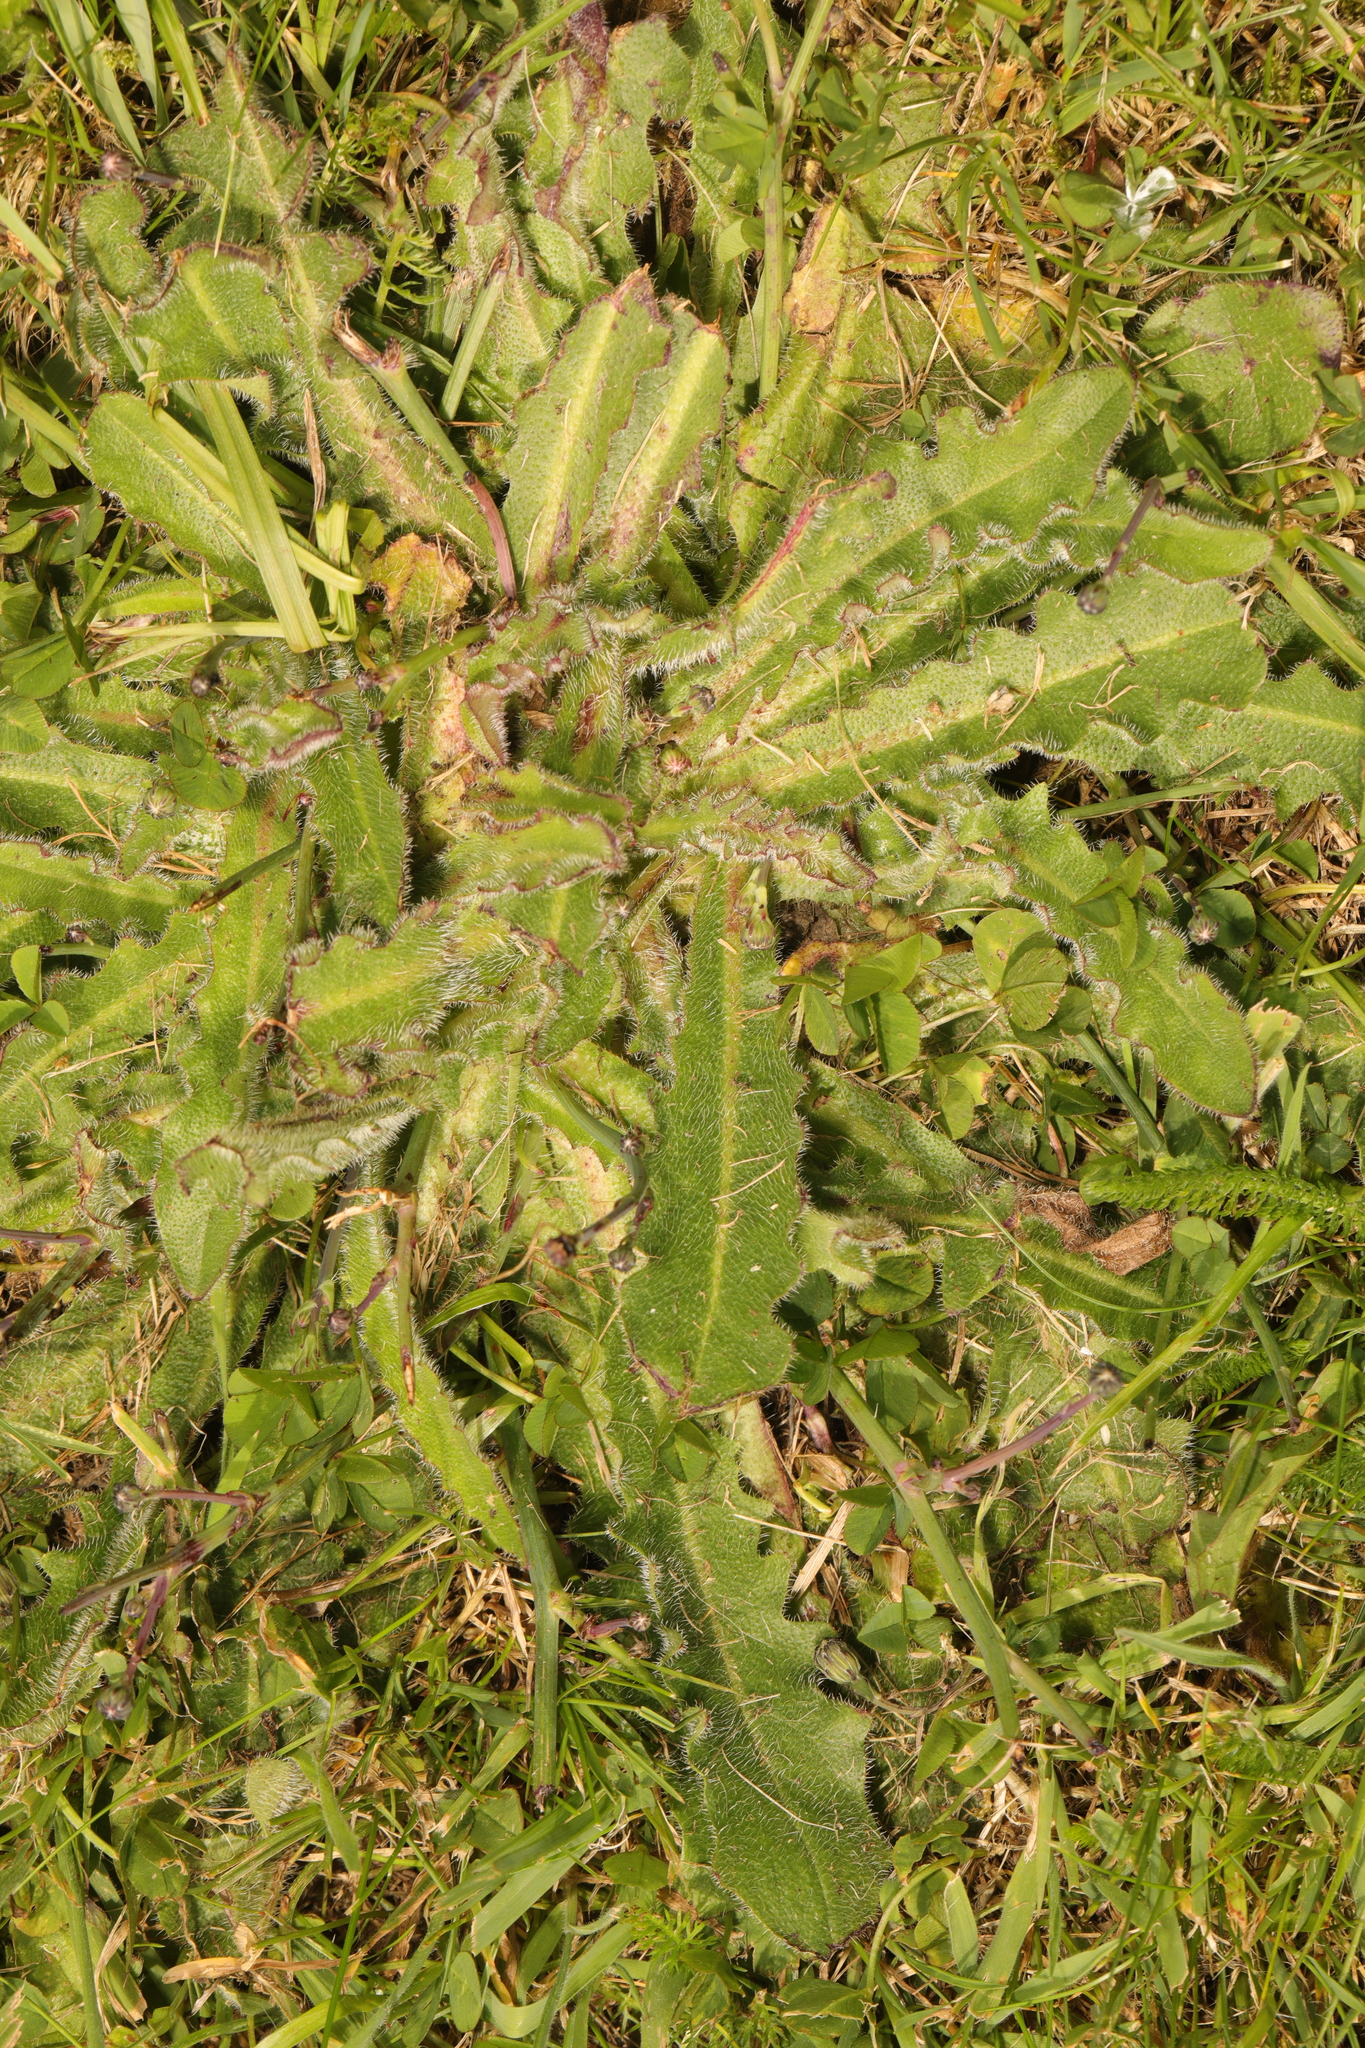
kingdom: Plantae
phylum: Tracheophyta
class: Magnoliopsida
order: Asterales
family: Asteraceae
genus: Hypochaeris
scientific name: Hypochaeris radicata
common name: Flatweed
